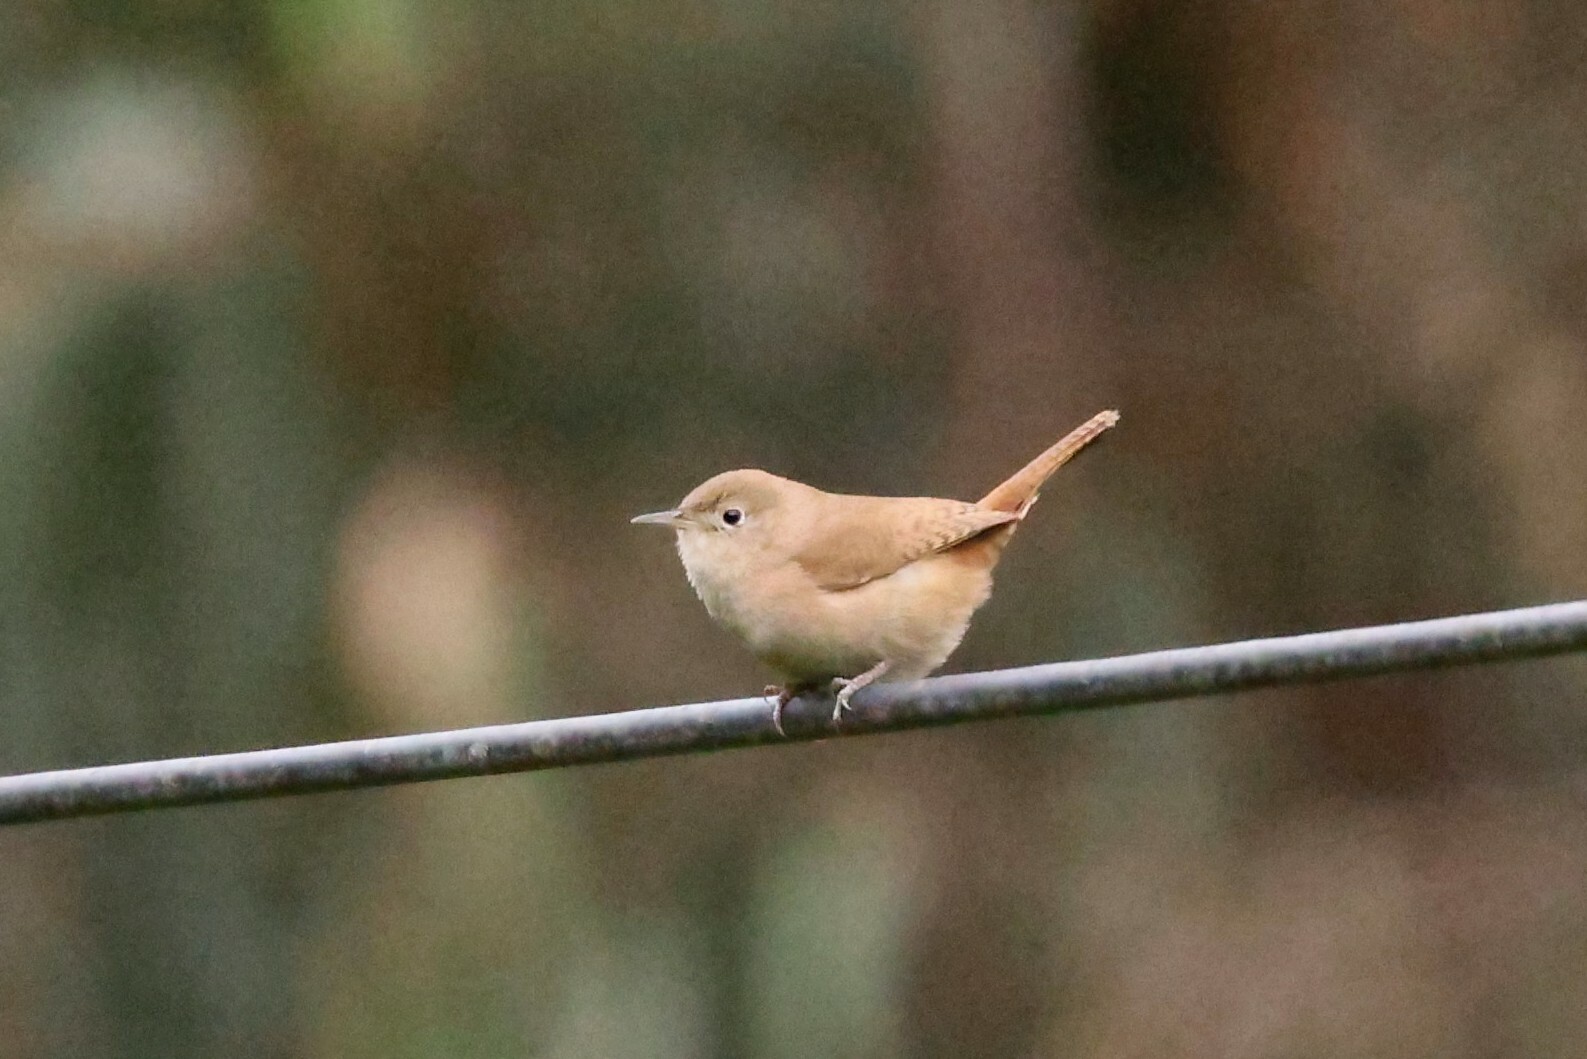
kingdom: Animalia
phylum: Chordata
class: Aves
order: Passeriformes
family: Troglodytidae
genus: Troglodytes
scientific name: Troglodytes aedon
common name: House wren
